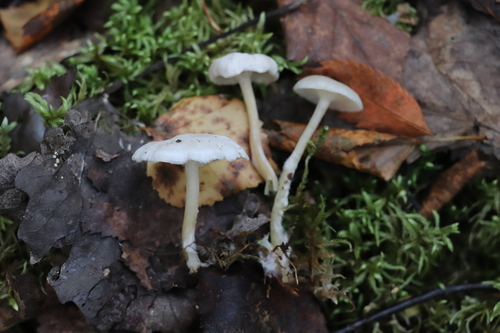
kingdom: Fungi
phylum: Basidiomycota
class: Agaricomycetes
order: Agaricales
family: Tricholomataceae
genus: Clitocybe
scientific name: Clitocybe
